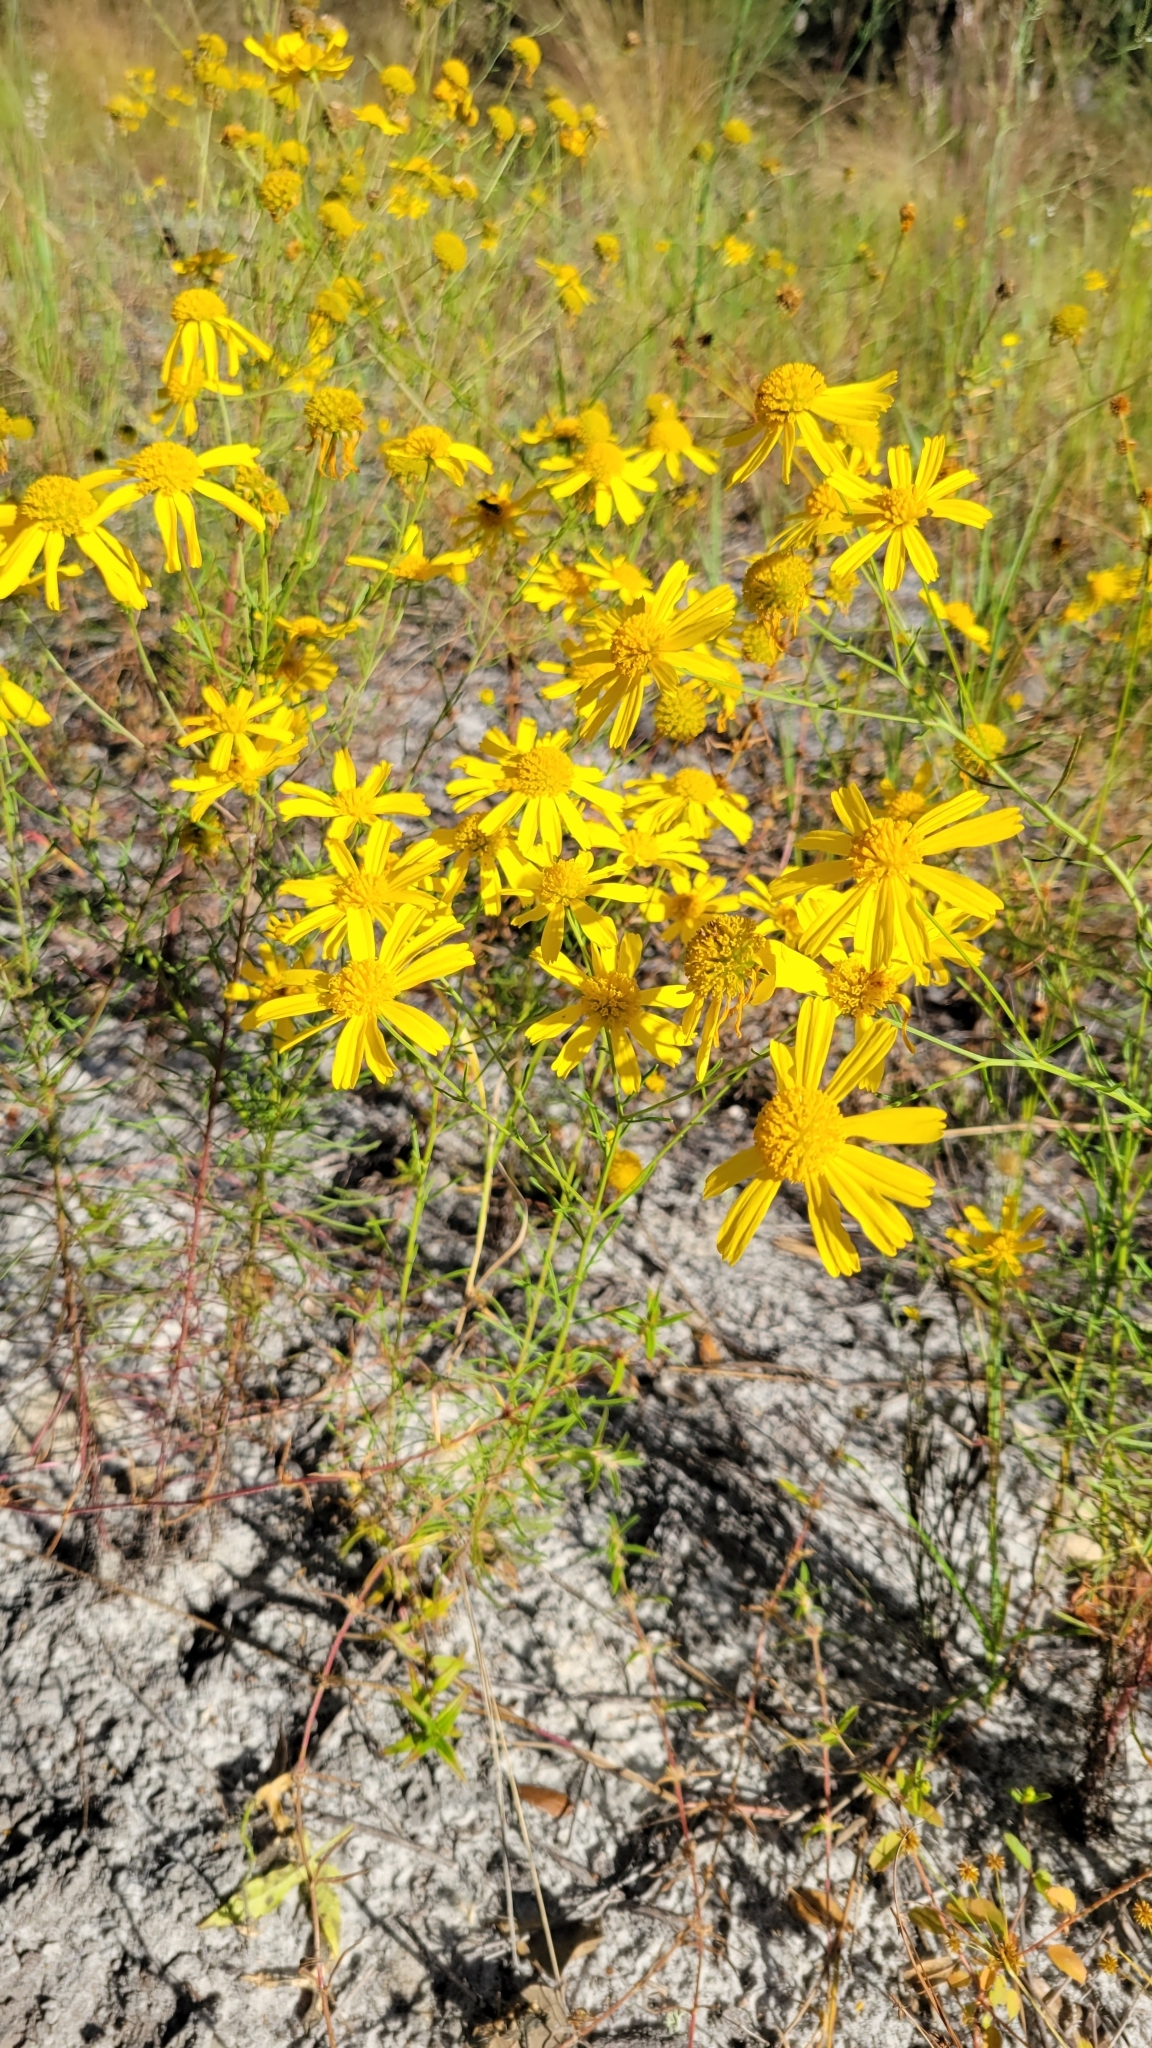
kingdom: Plantae
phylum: Tracheophyta
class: Magnoliopsida
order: Asterales
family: Asteraceae
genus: Balduina
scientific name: Balduina angustifolia
